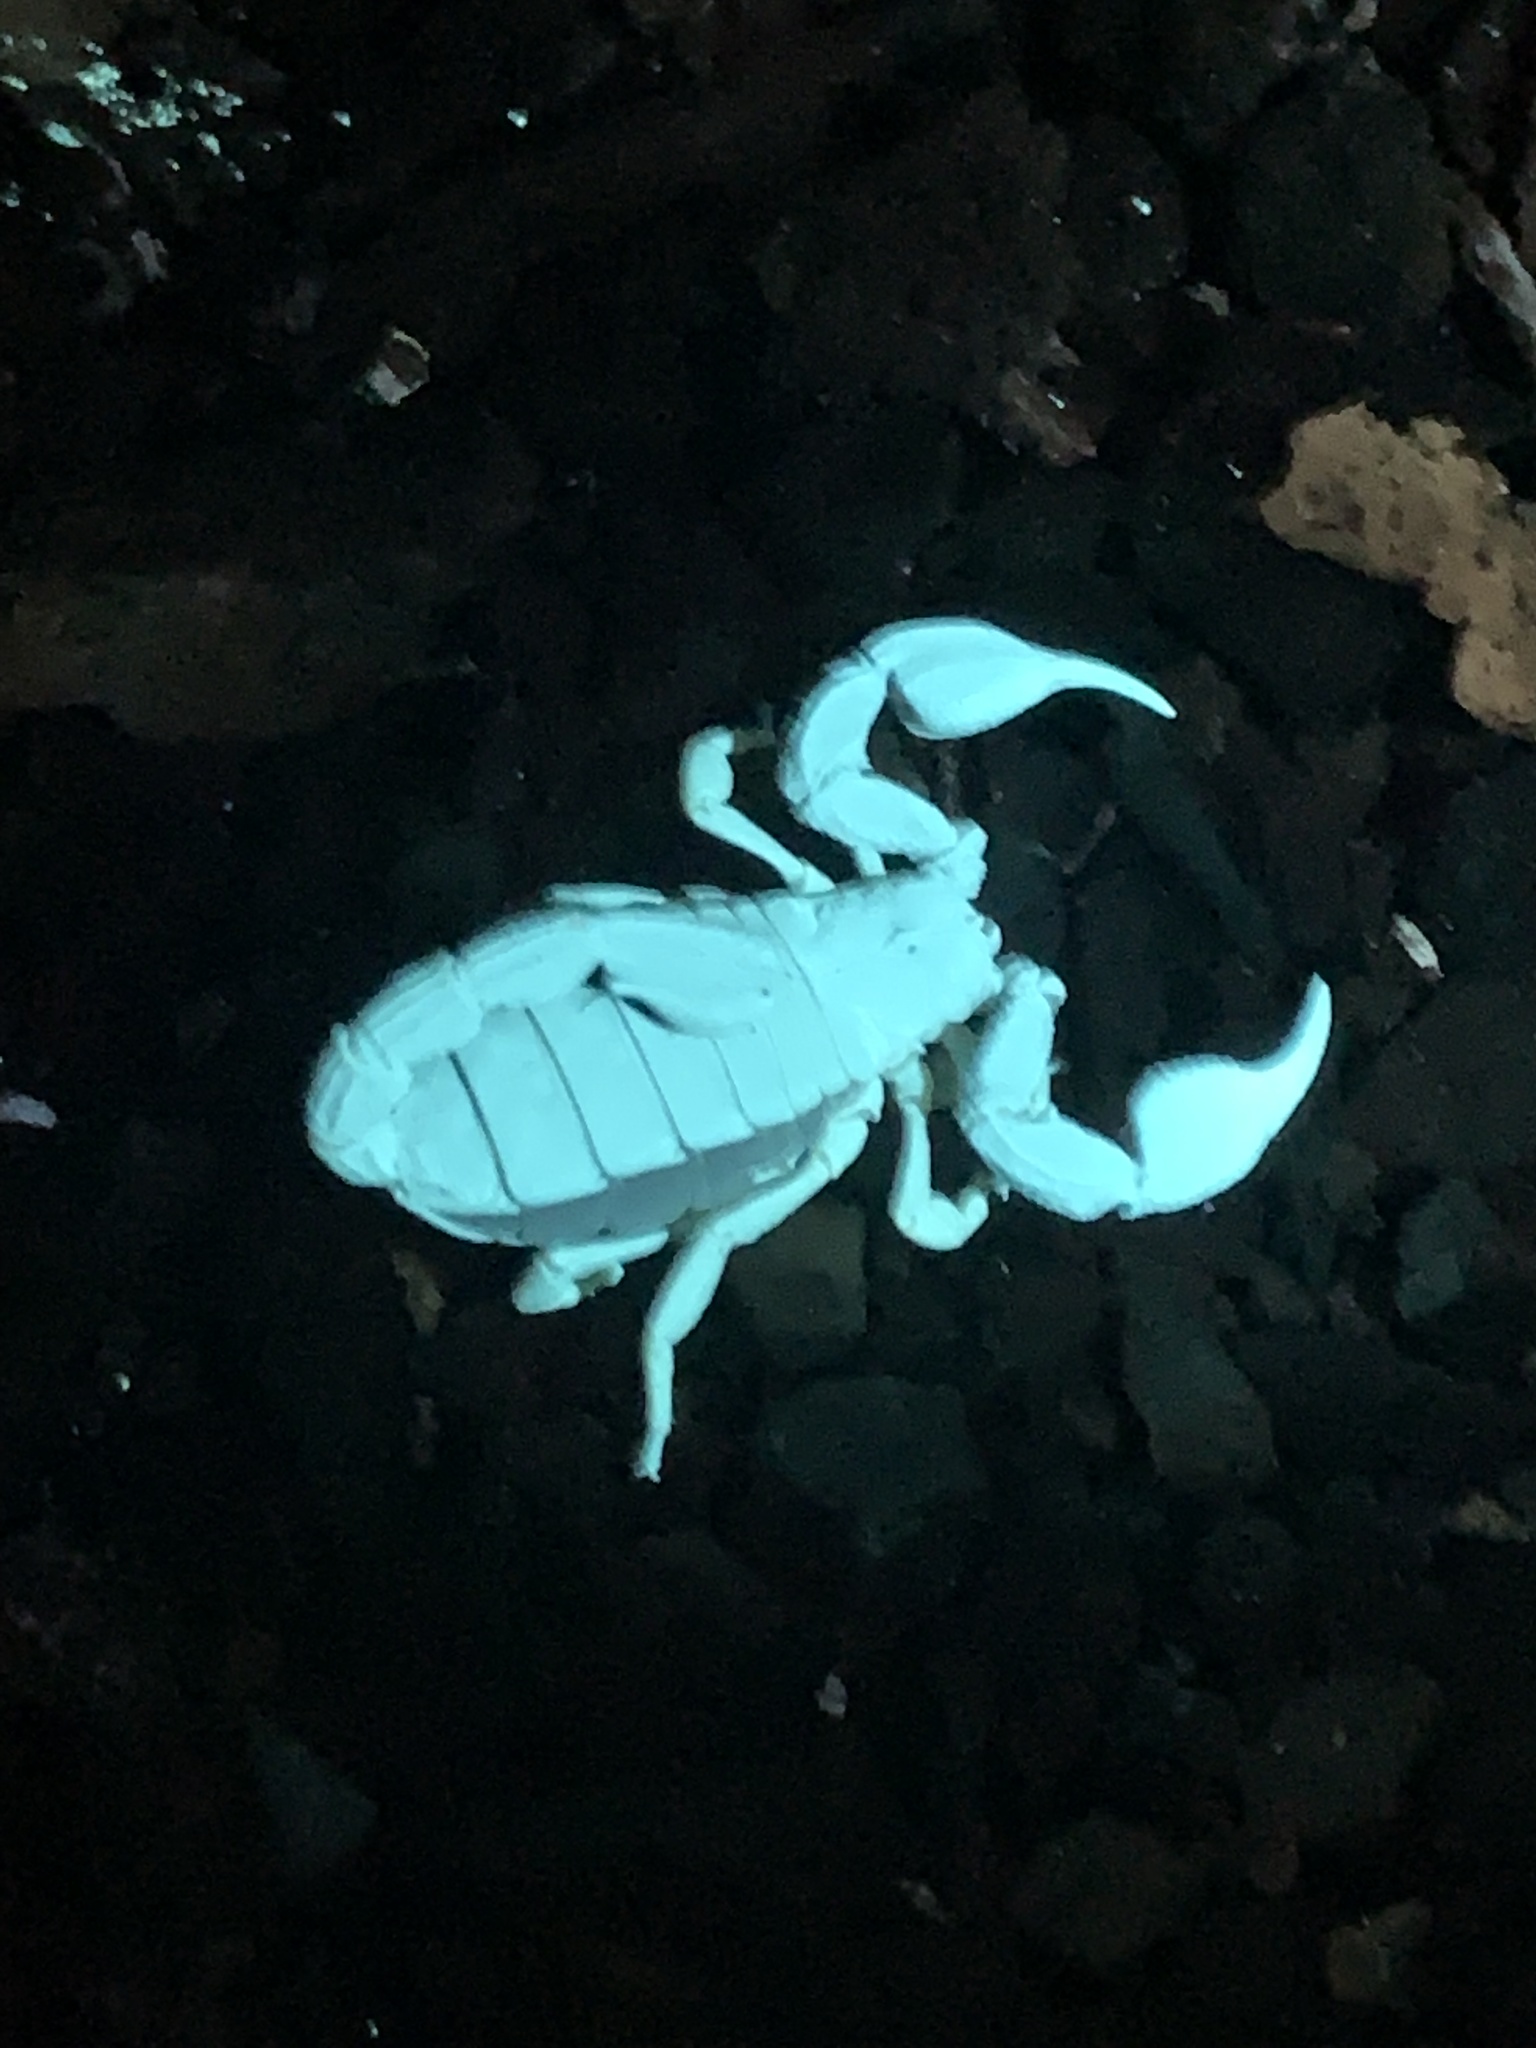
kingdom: Animalia
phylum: Arthropoda
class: Arachnida
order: Scorpiones
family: Chactidae
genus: Uroctonus
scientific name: Uroctonus mordax
